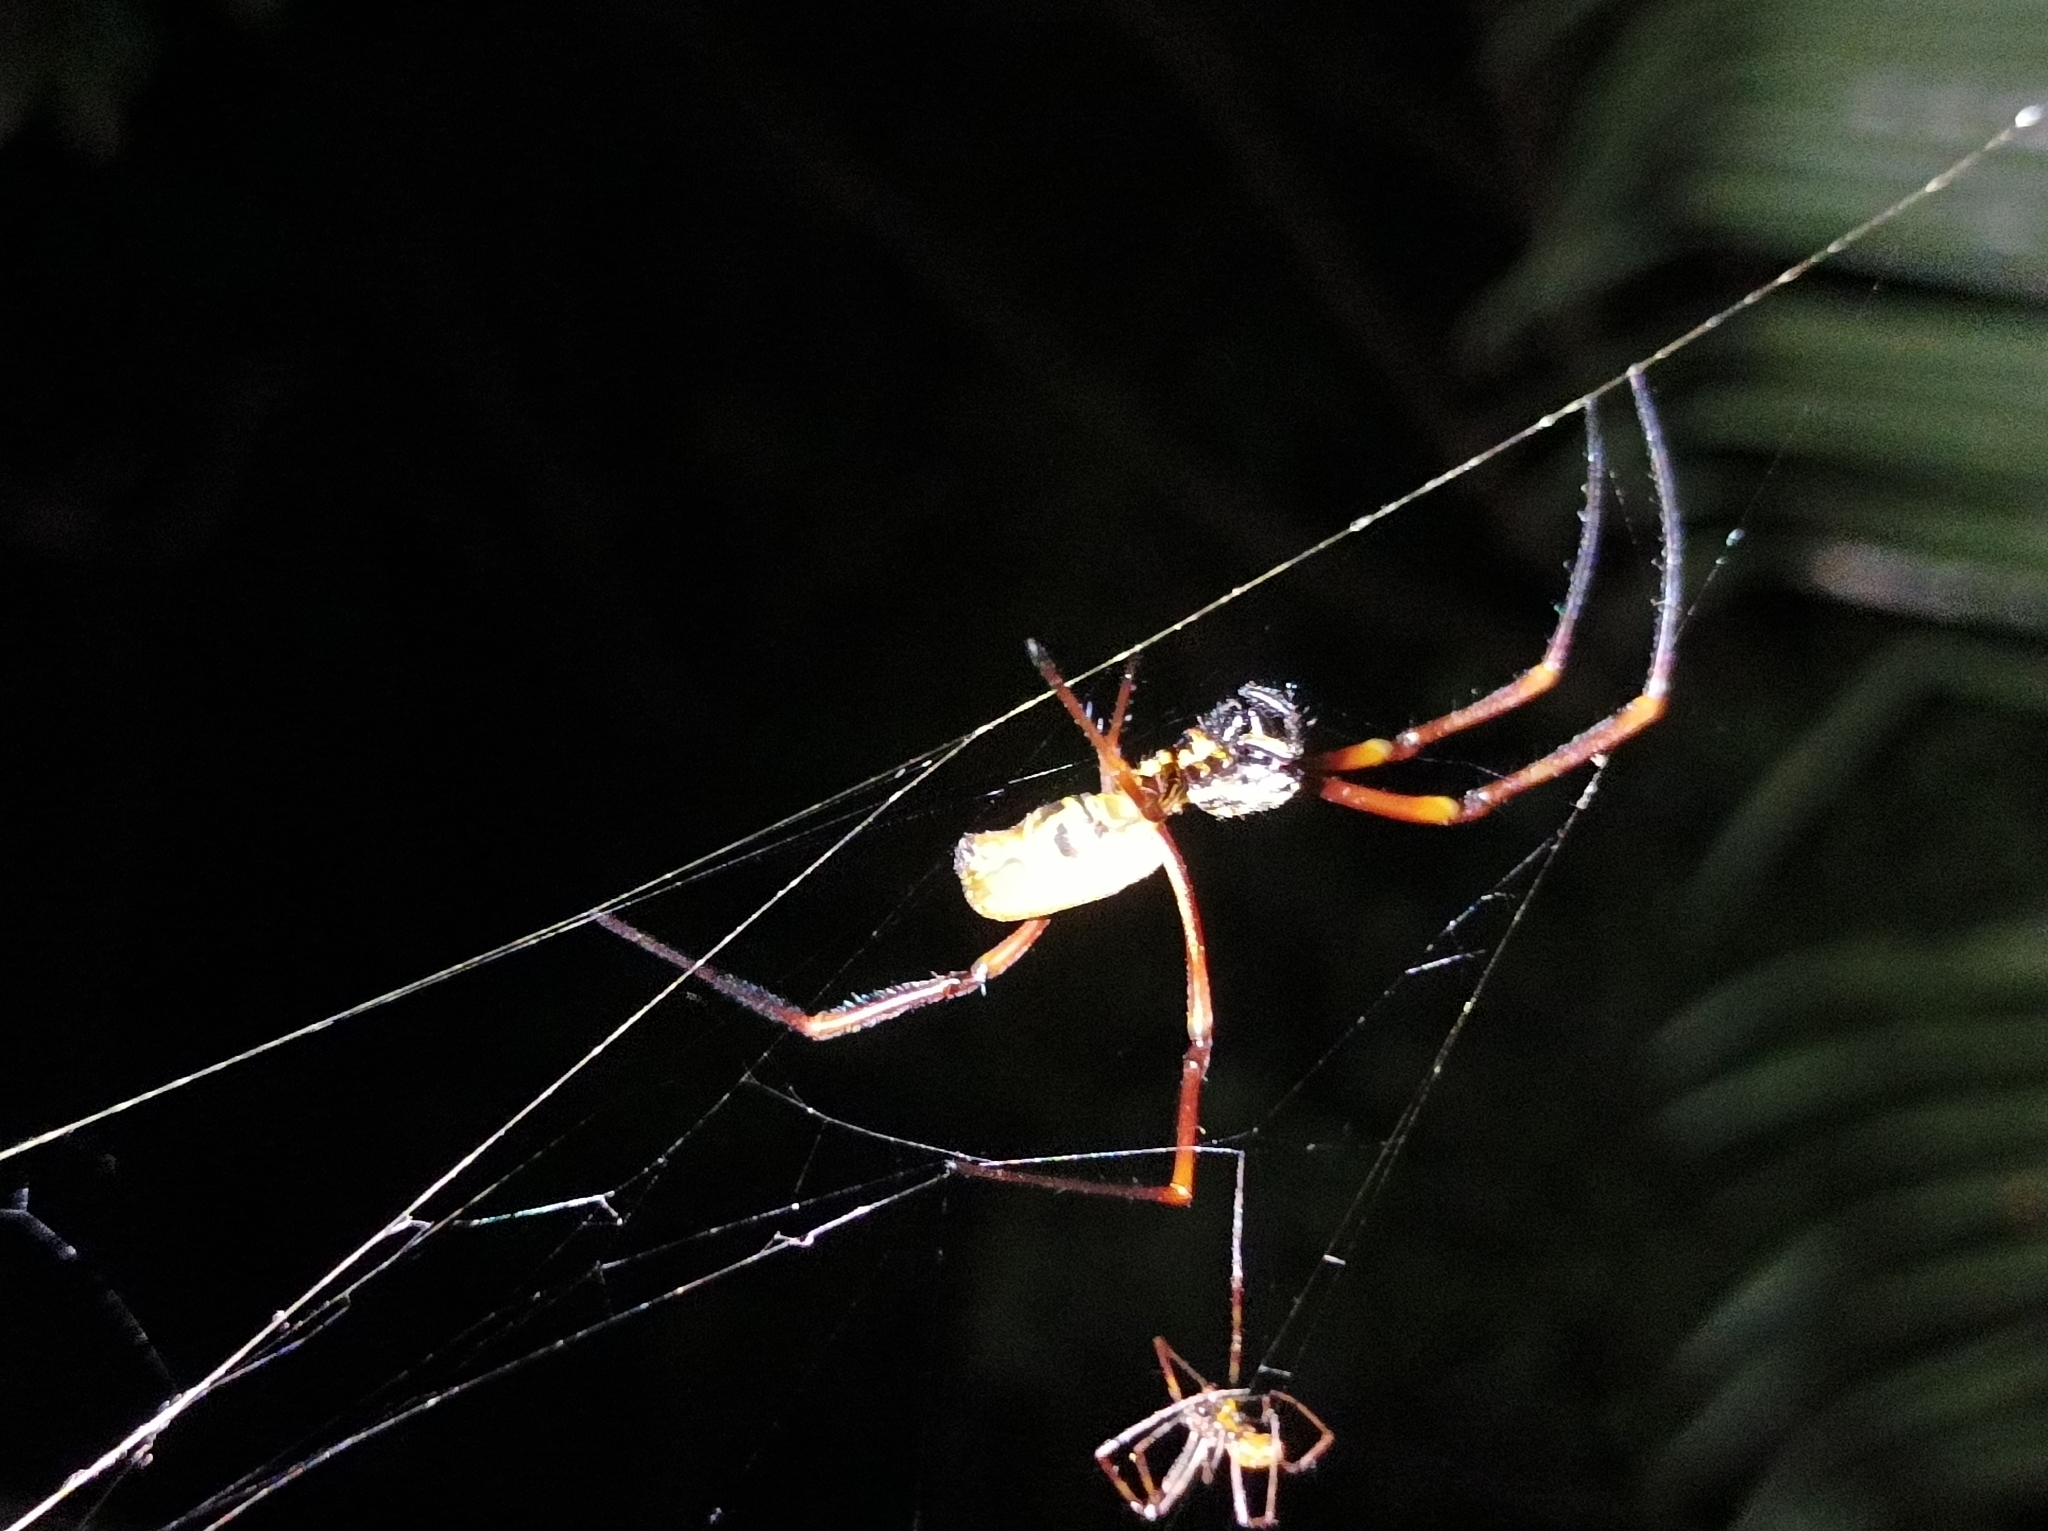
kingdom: Animalia
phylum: Arthropoda
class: Arachnida
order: Araneae
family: Araneidae
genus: Trichonephila
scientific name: Trichonephila plumipes
